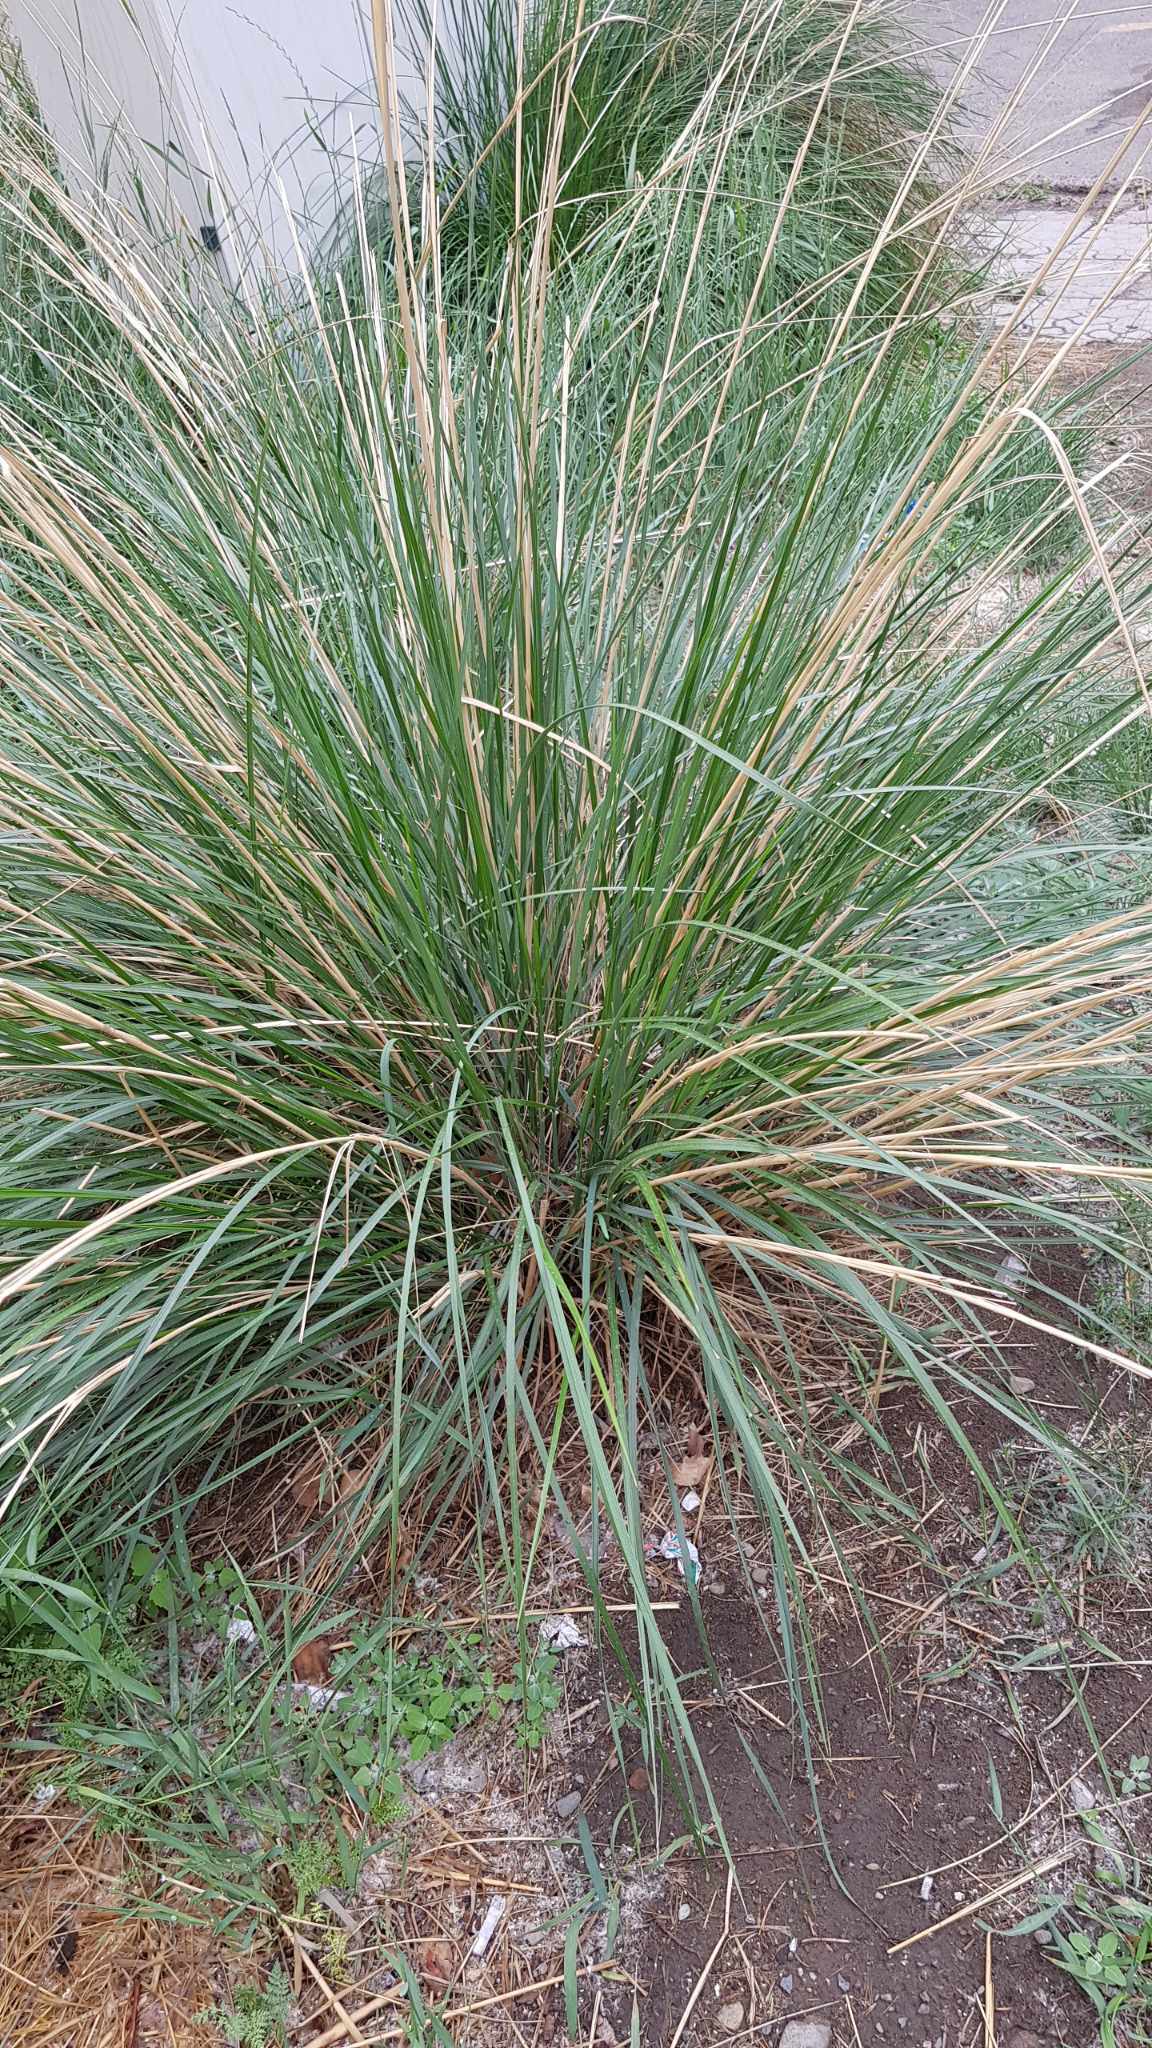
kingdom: Plantae
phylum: Tracheophyta
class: Liliopsida
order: Poales
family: Poaceae
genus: Neotrinia
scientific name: Neotrinia splendens
